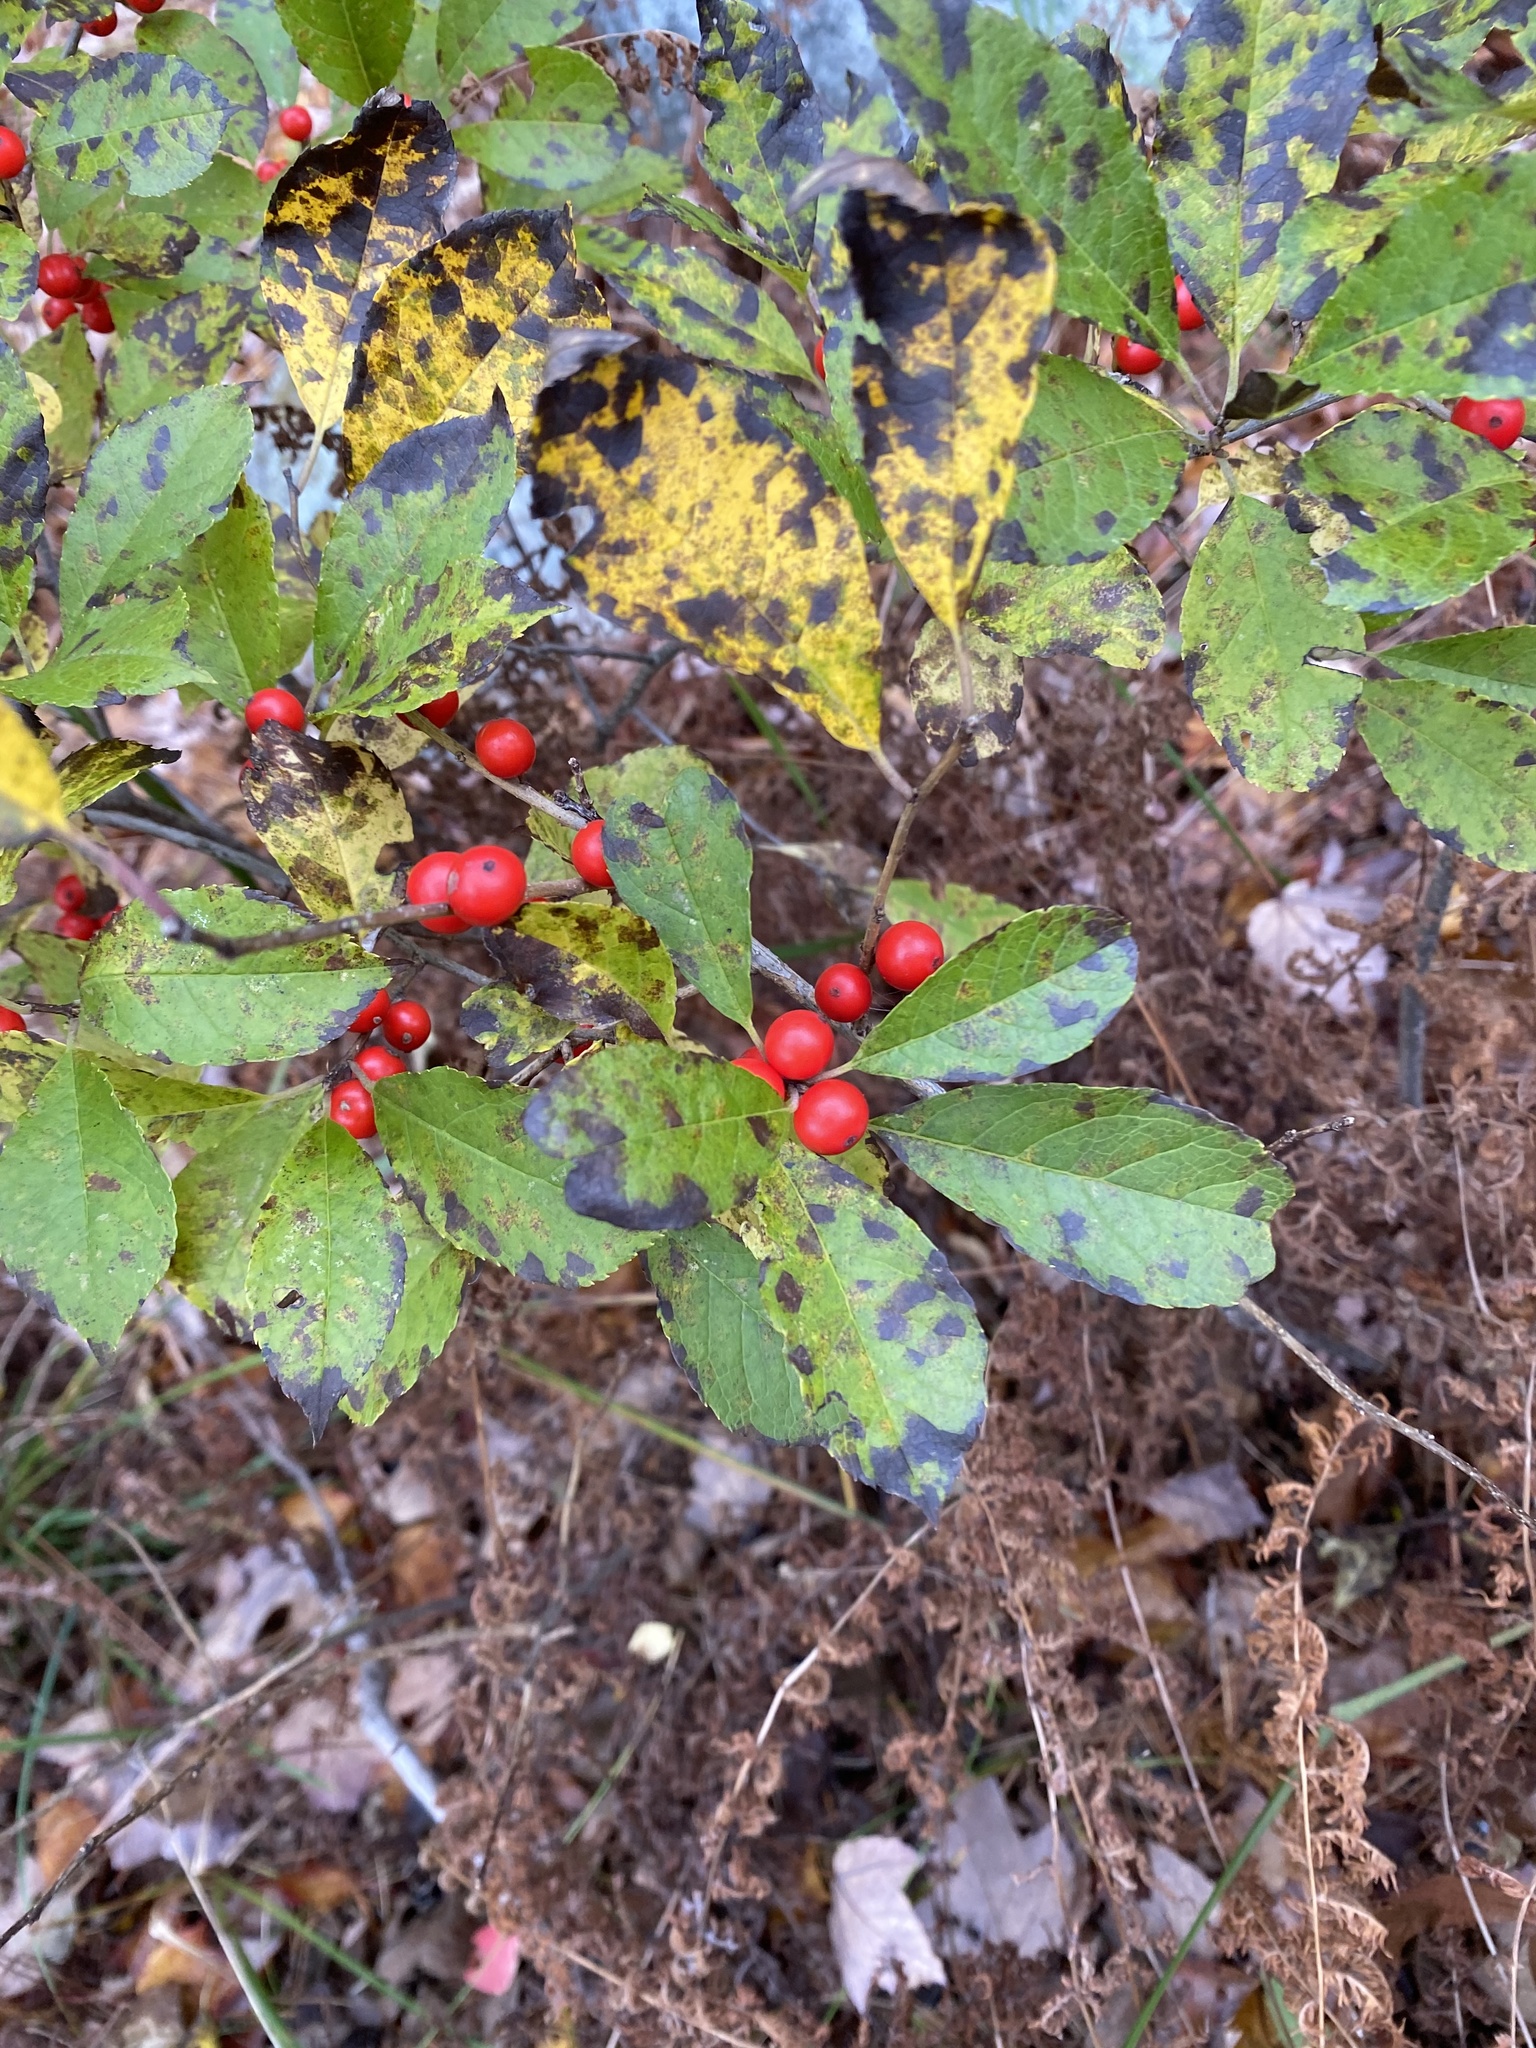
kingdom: Plantae
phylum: Tracheophyta
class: Magnoliopsida
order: Aquifoliales
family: Aquifoliaceae
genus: Ilex
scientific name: Ilex verticillata
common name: Virginia winterberry
